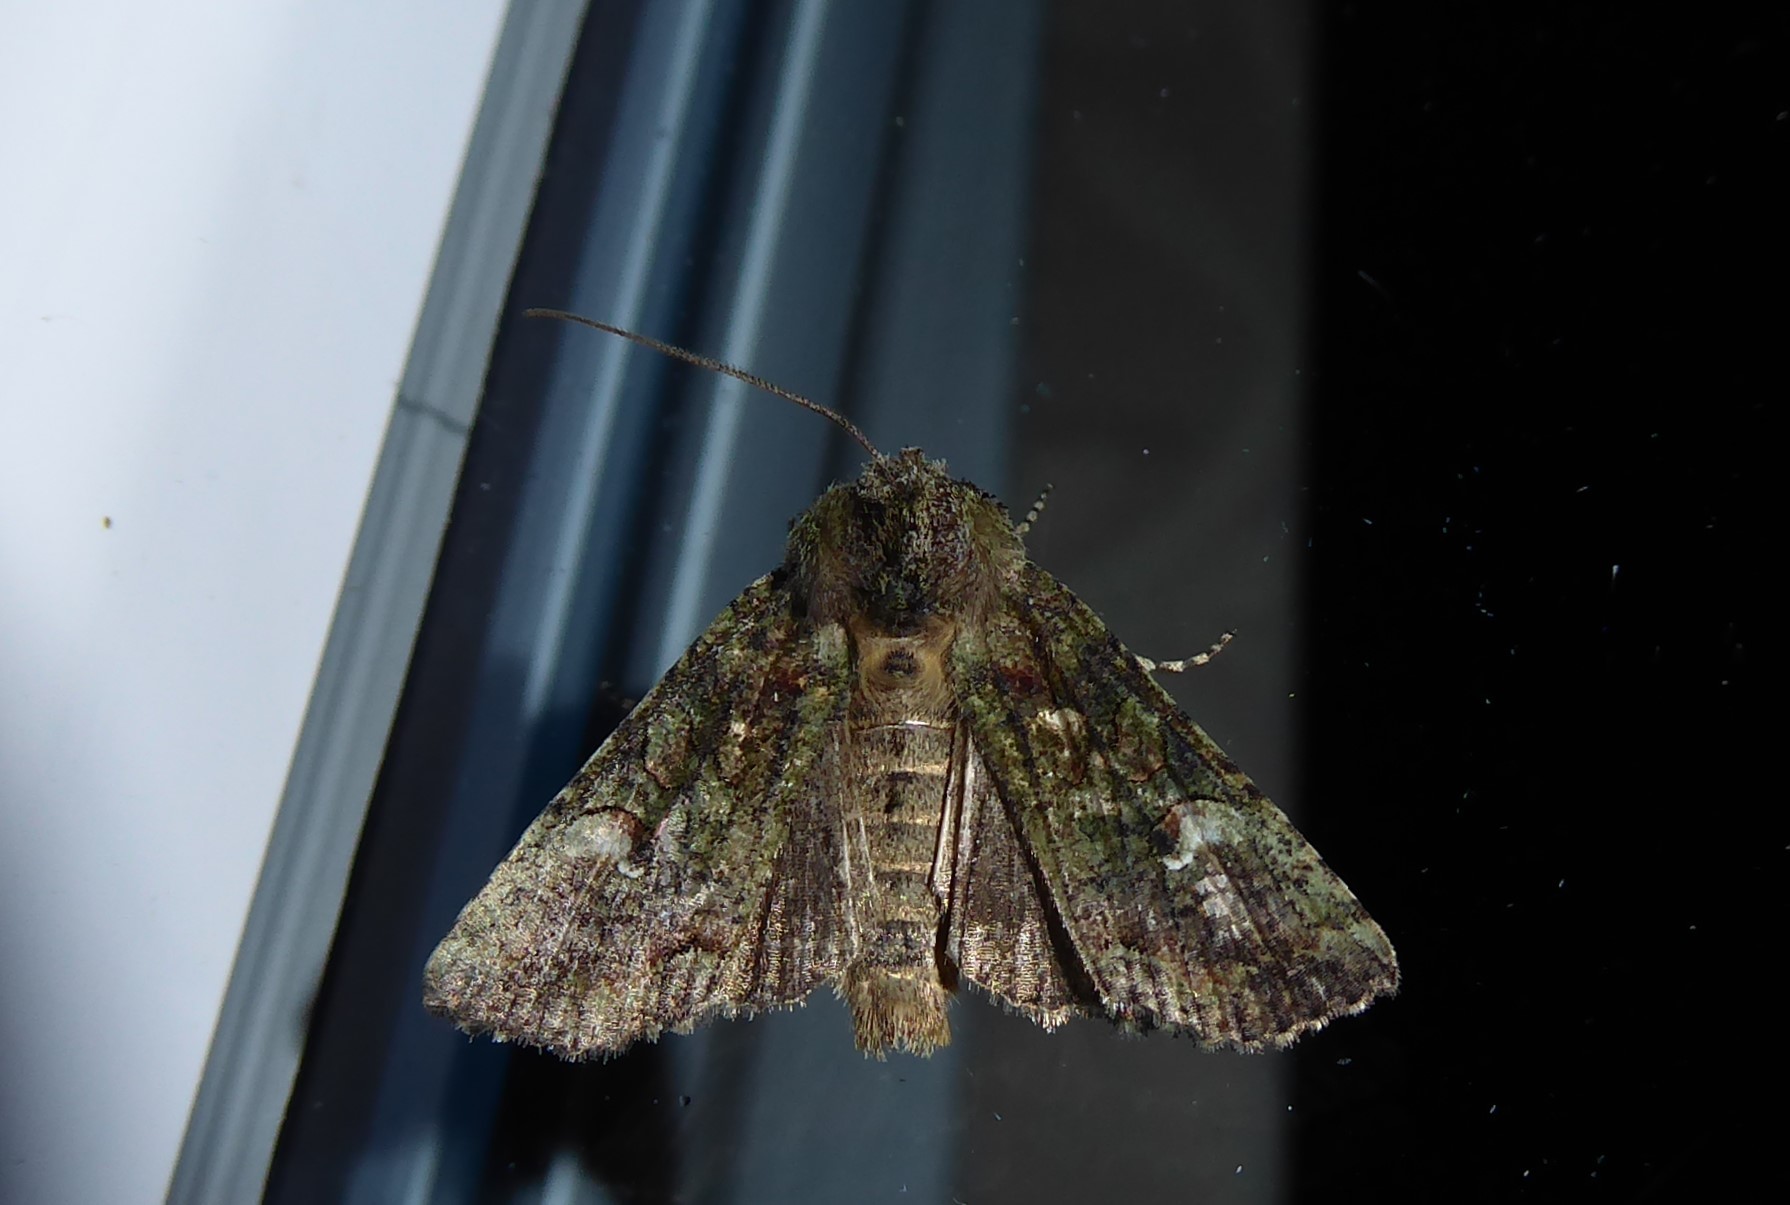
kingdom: Animalia
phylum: Arthropoda
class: Insecta
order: Lepidoptera
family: Noctuidae
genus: Meterana
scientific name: Meterana levis
